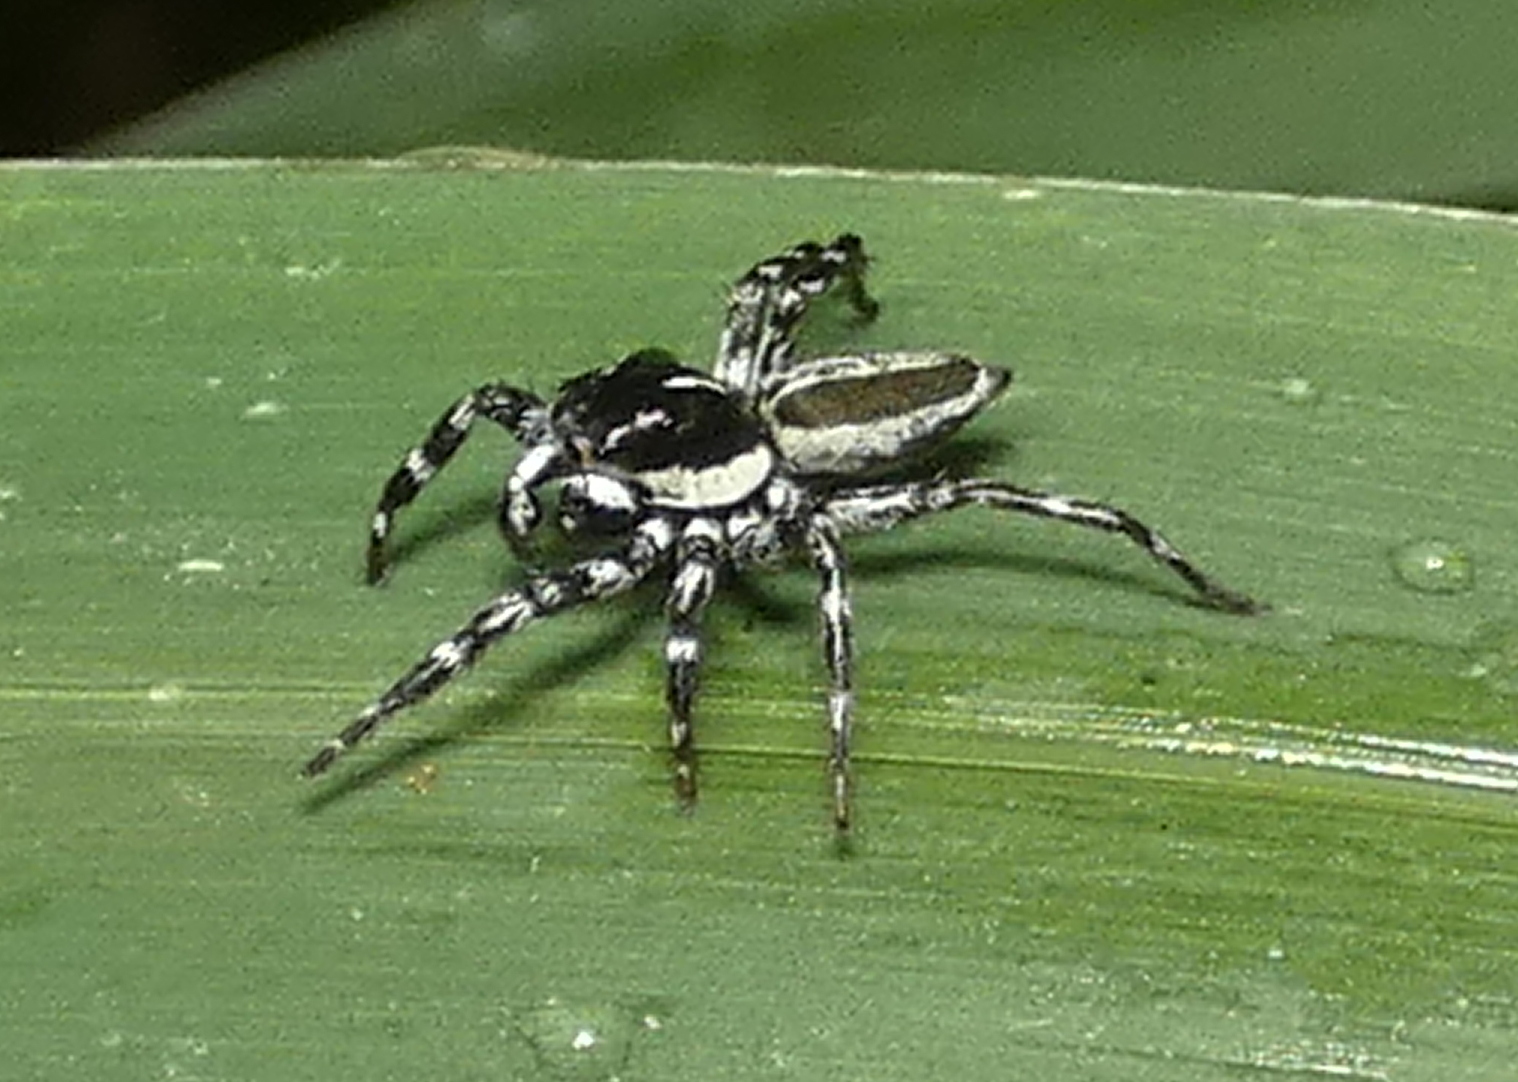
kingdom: Animalia
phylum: Arthropoda
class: Arachnida
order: Araneae
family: Salticidae
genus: Phiale
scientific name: Phiale tristis
